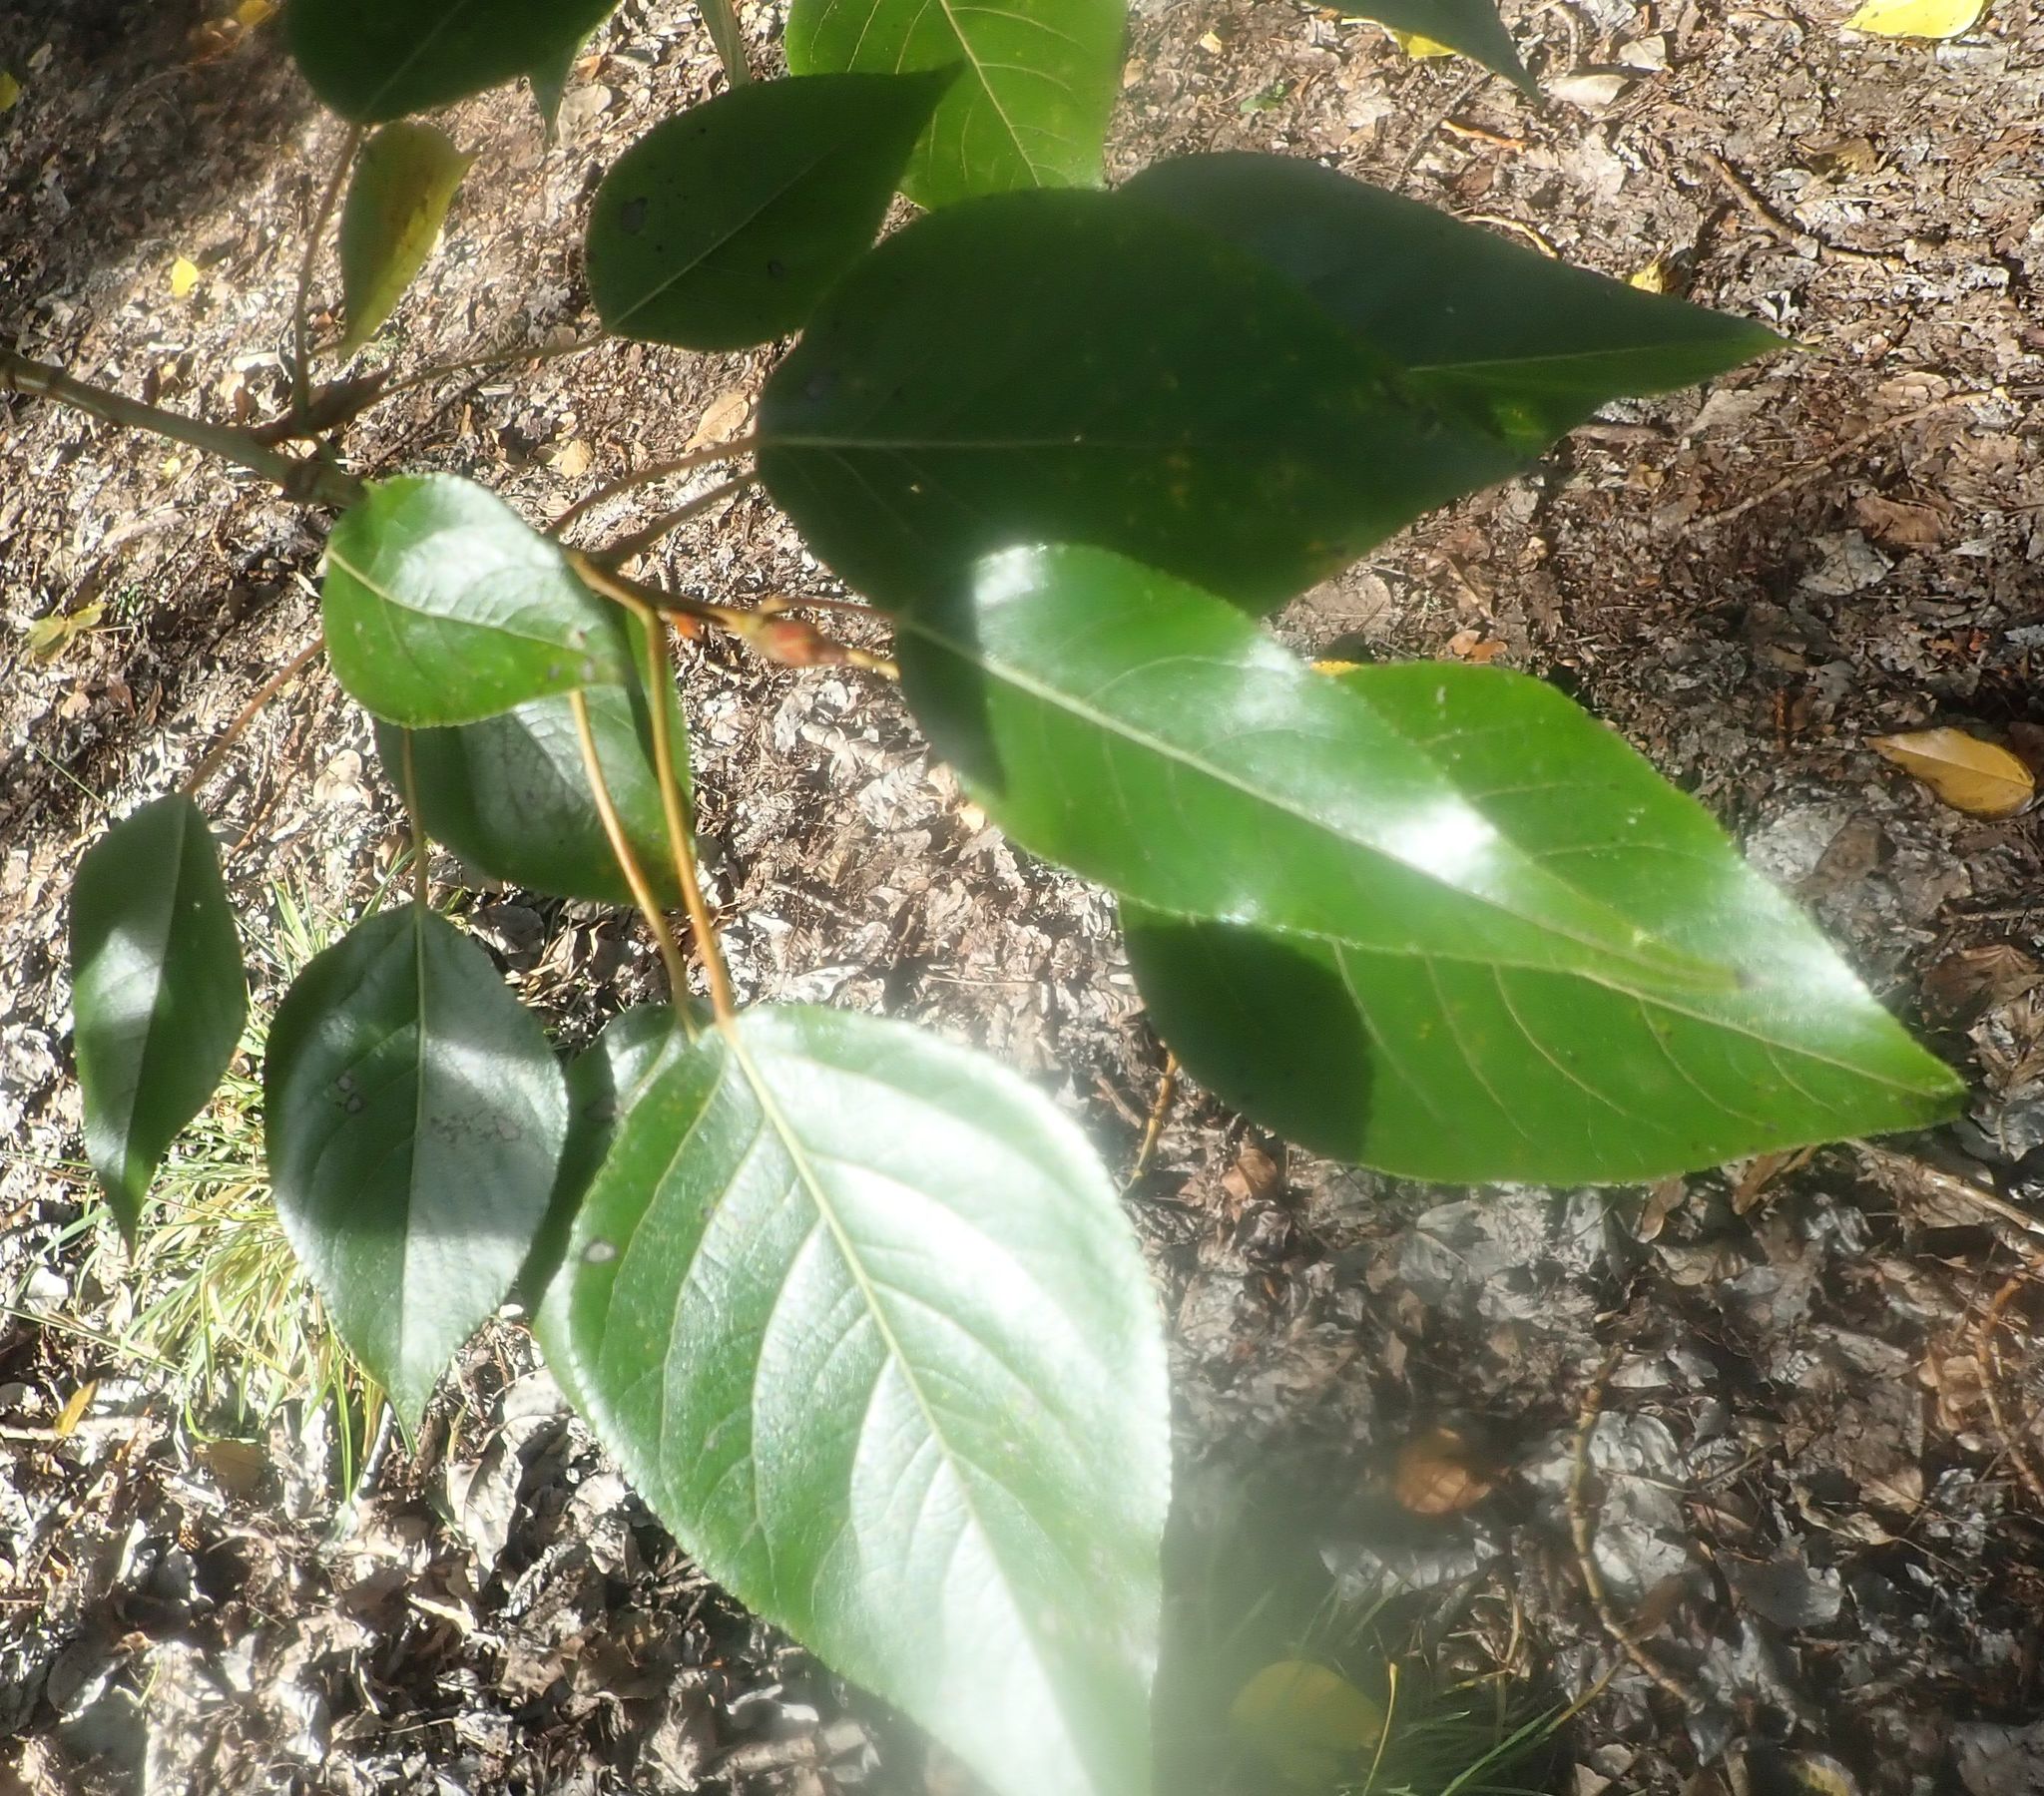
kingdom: Plantae
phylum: Tracheophyta
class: Magnoliopsida
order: Malpighiales
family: Salicaceae
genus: Populus
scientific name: Populus yunnanensis
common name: Yunnan poplar
